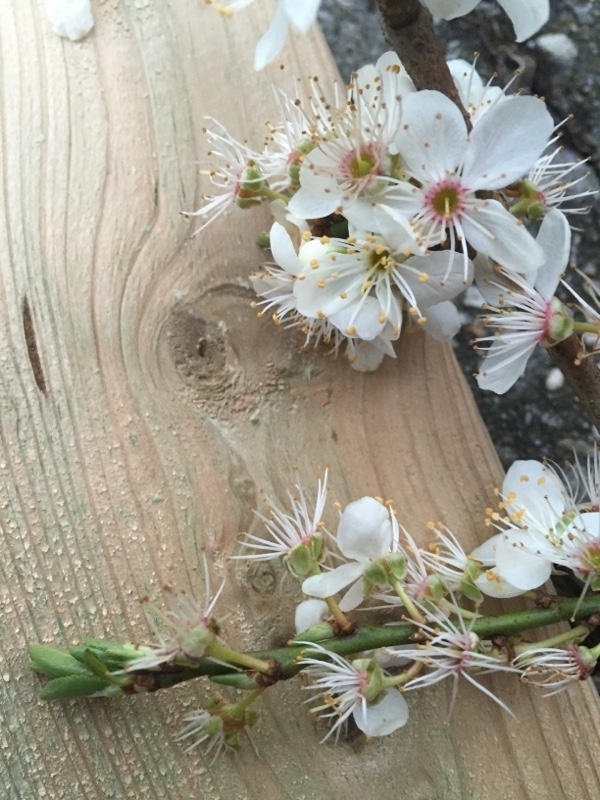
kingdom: Plantae
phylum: Tracheophyta
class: Magnoliopsida
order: Rosales
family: Rosaceae
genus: Prunus
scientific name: Prunus cerasifera
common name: Cherry plum
